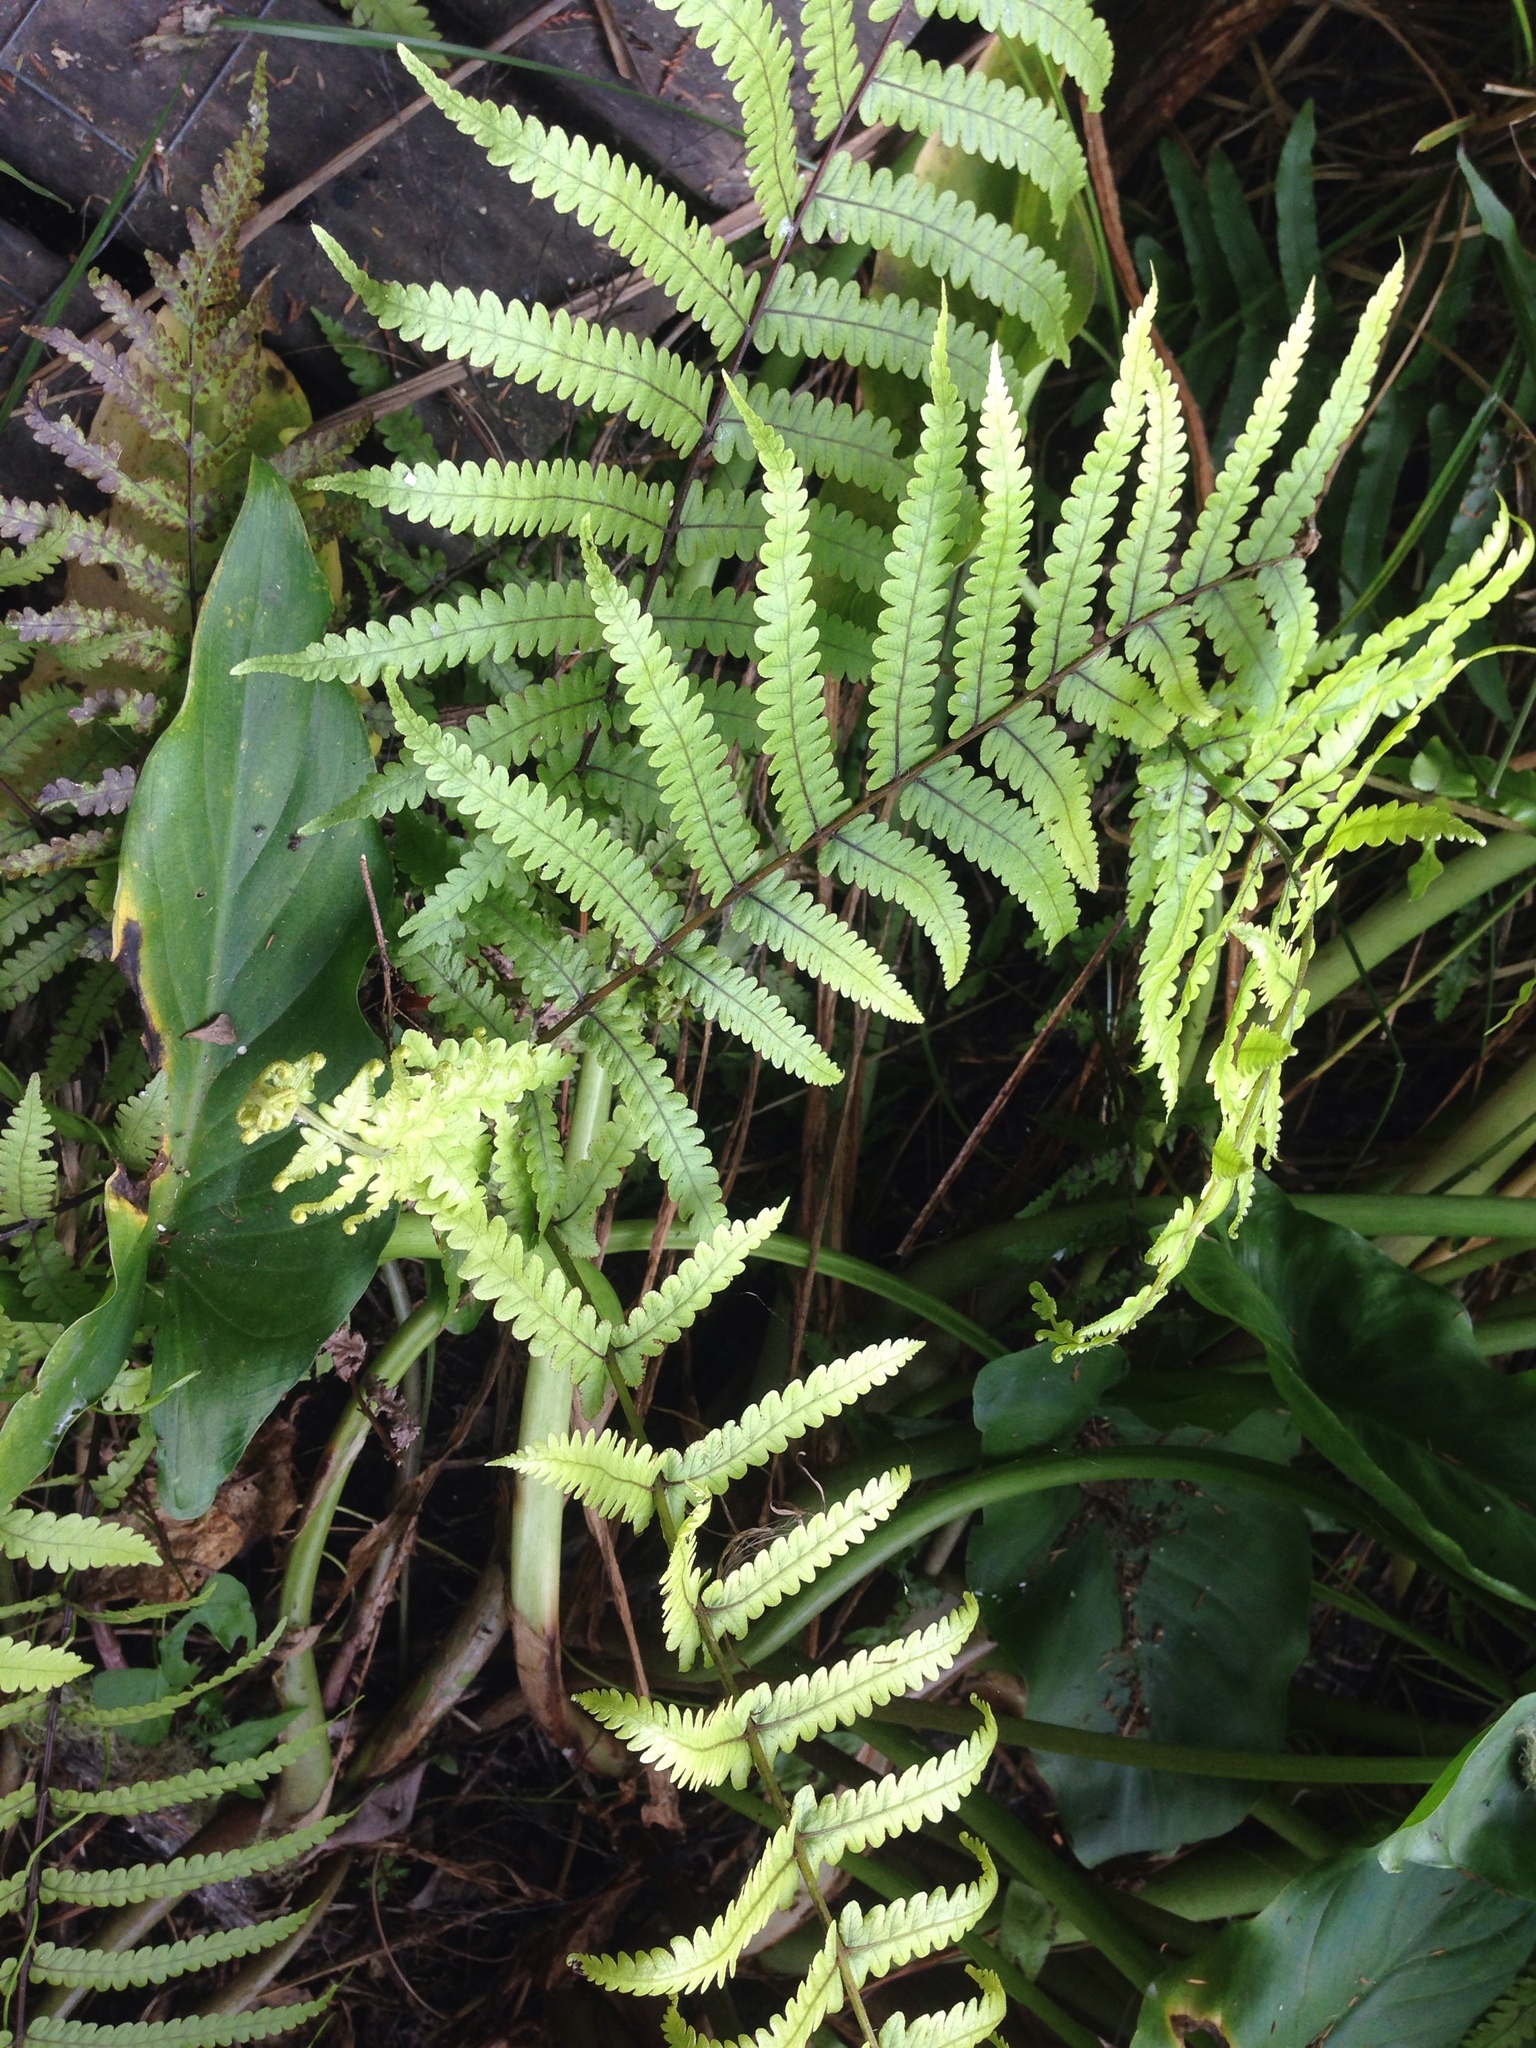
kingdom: Plantae
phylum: Tracheophyta
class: Polypodiopsida
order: Polypodiales
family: Thelypteridaceae
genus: Pakau
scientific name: Pakau pennigera
